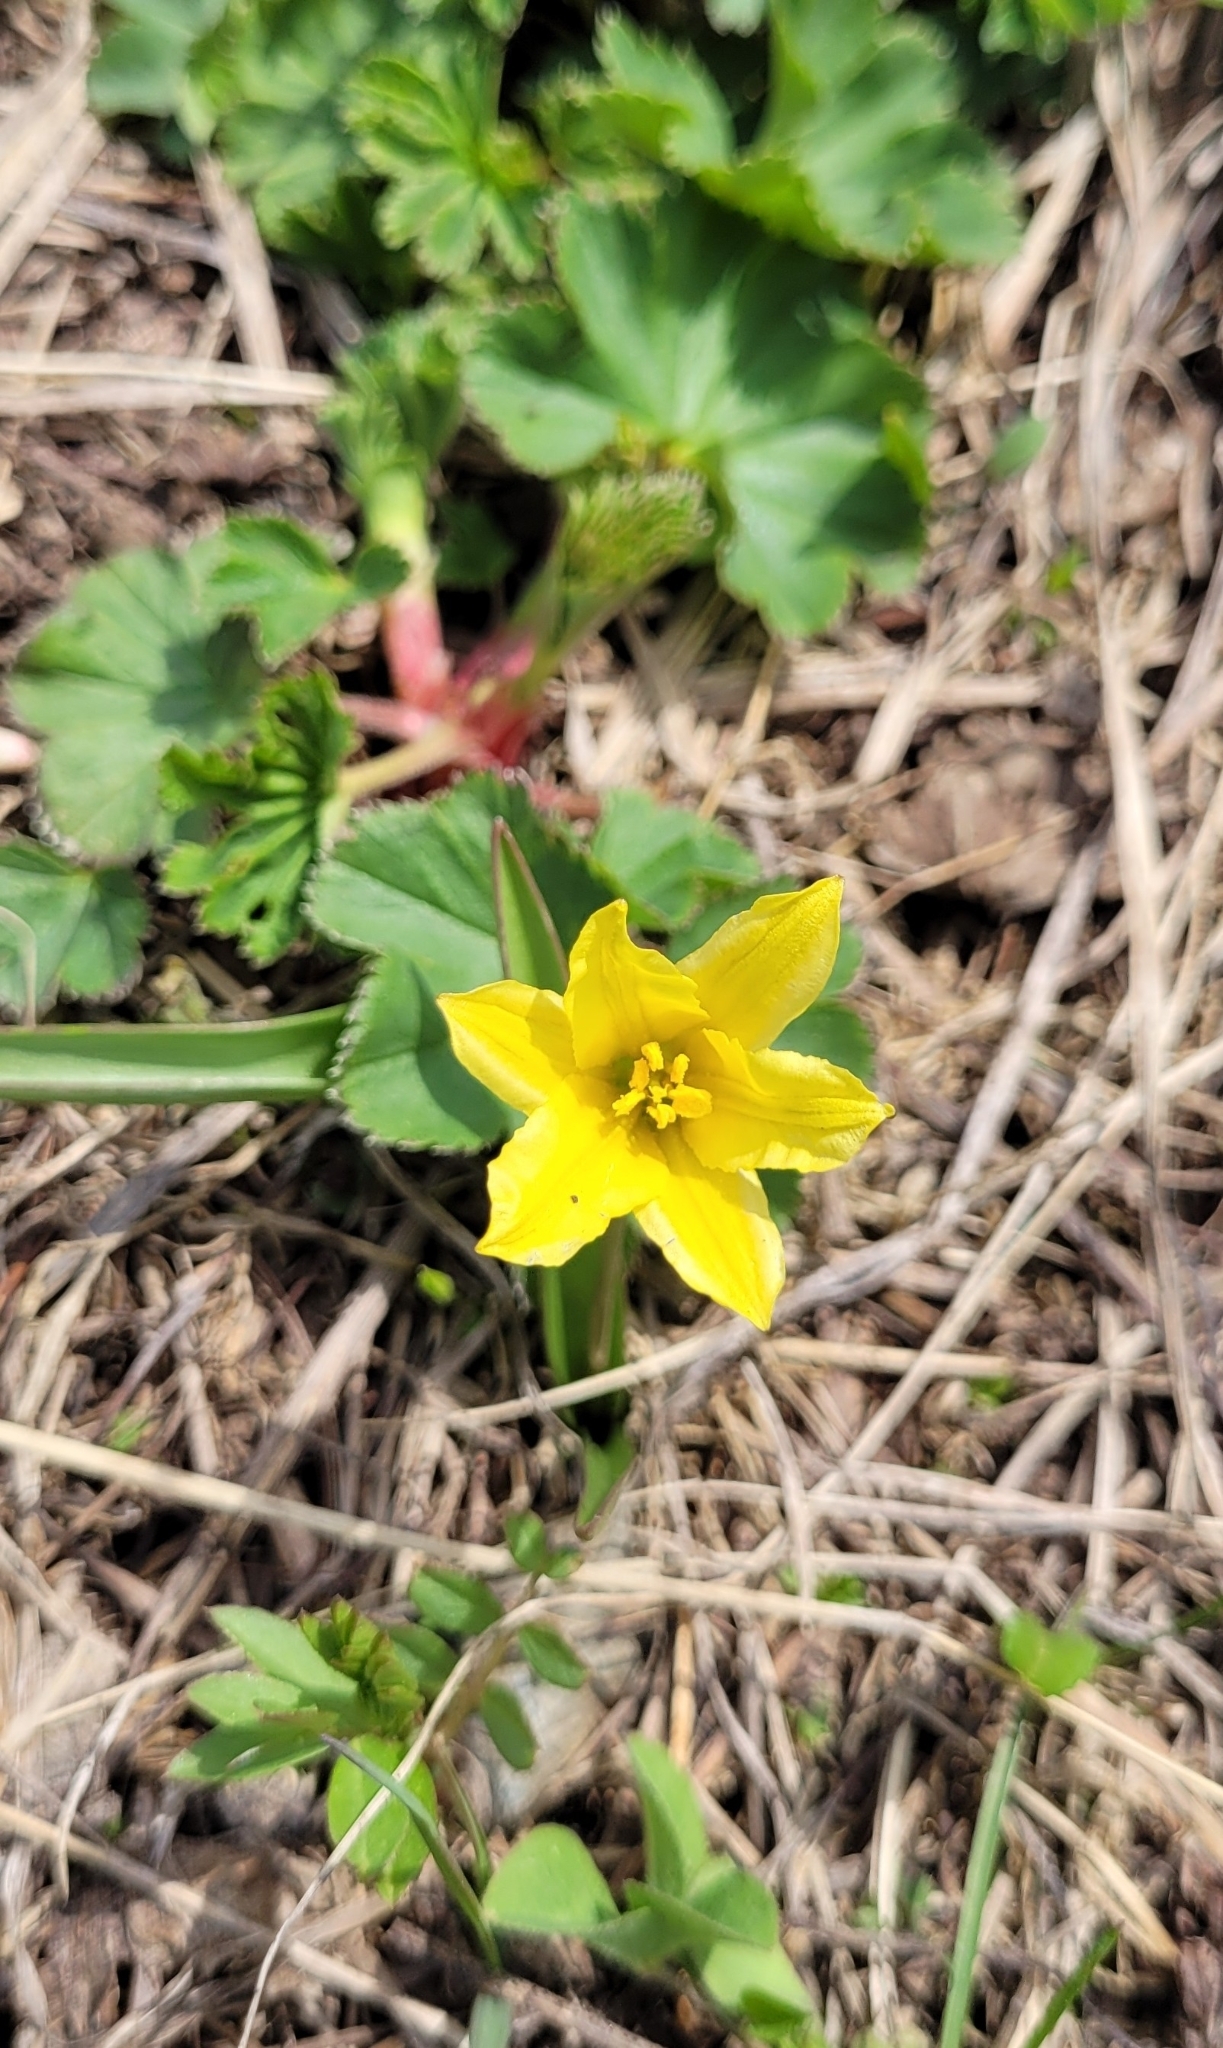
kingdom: Plantae
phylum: Tracheophyta
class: Liliopsida
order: Liliales
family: Liliaceae
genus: Tulipa
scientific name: Tulipa heterophylla
